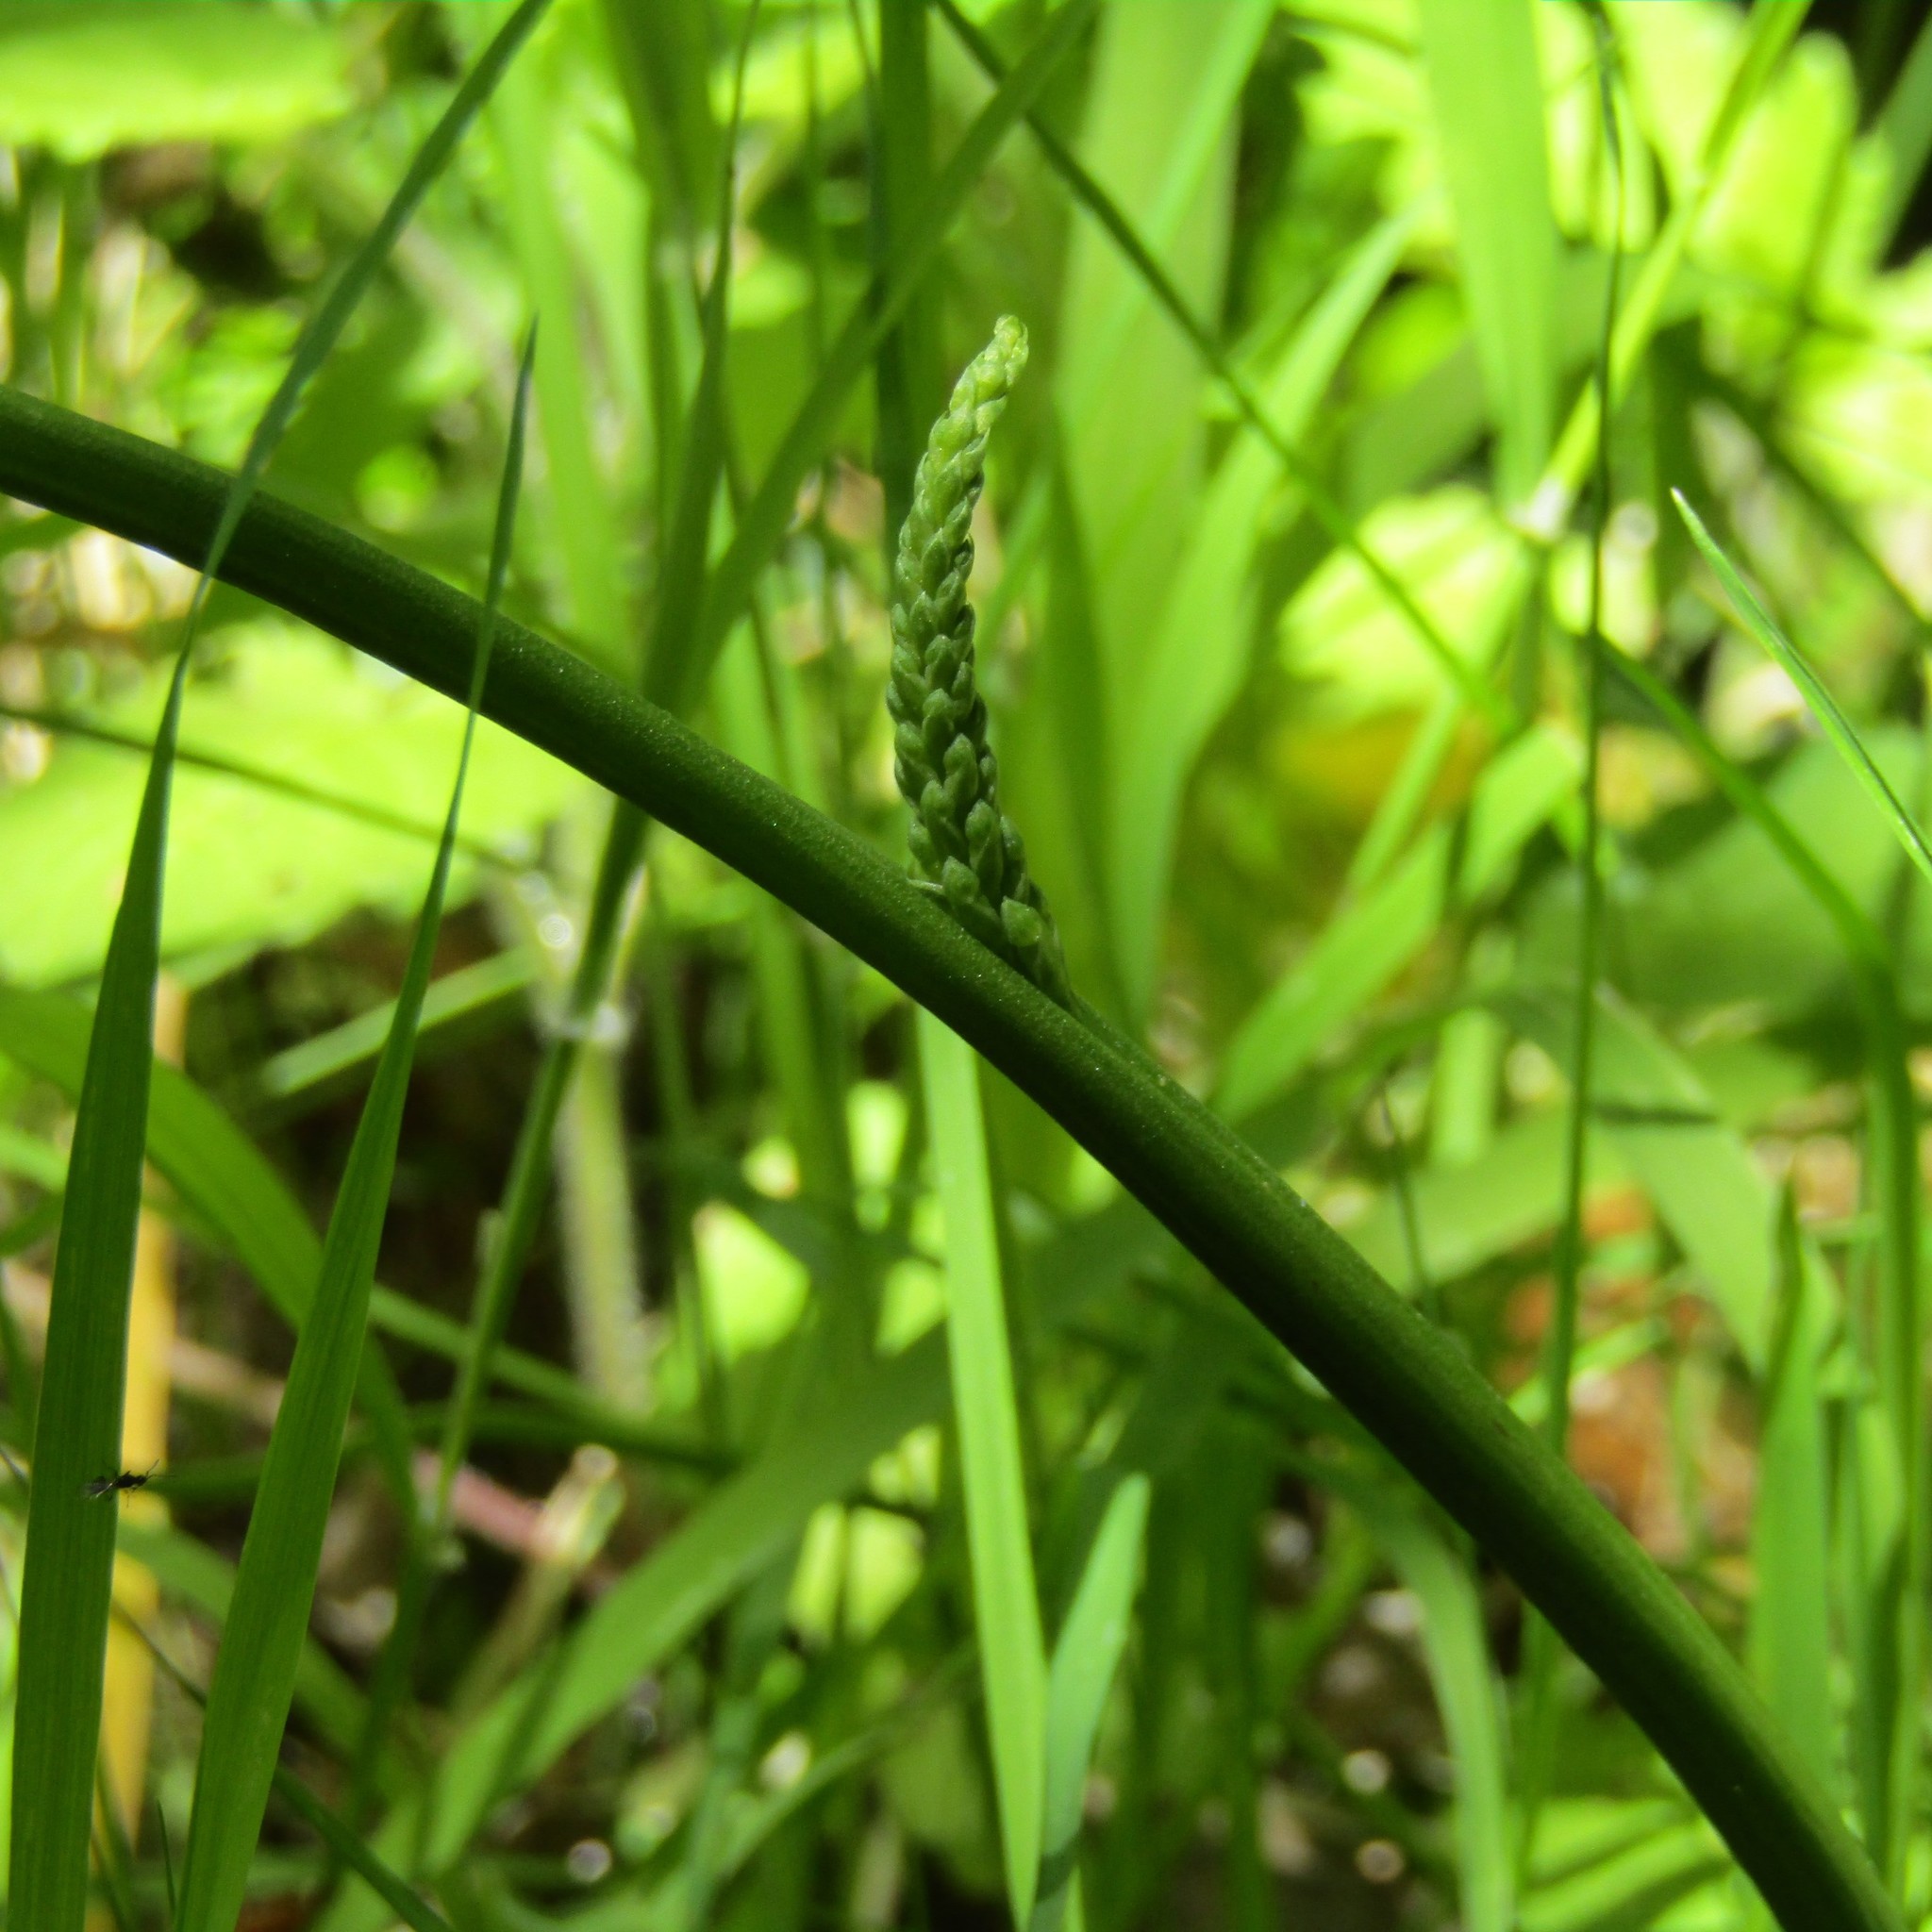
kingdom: Plantae
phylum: Tracheophyta
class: Liliopsida
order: Asparagales
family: Orchidaceae
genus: Microtis
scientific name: Microtis unifolia
